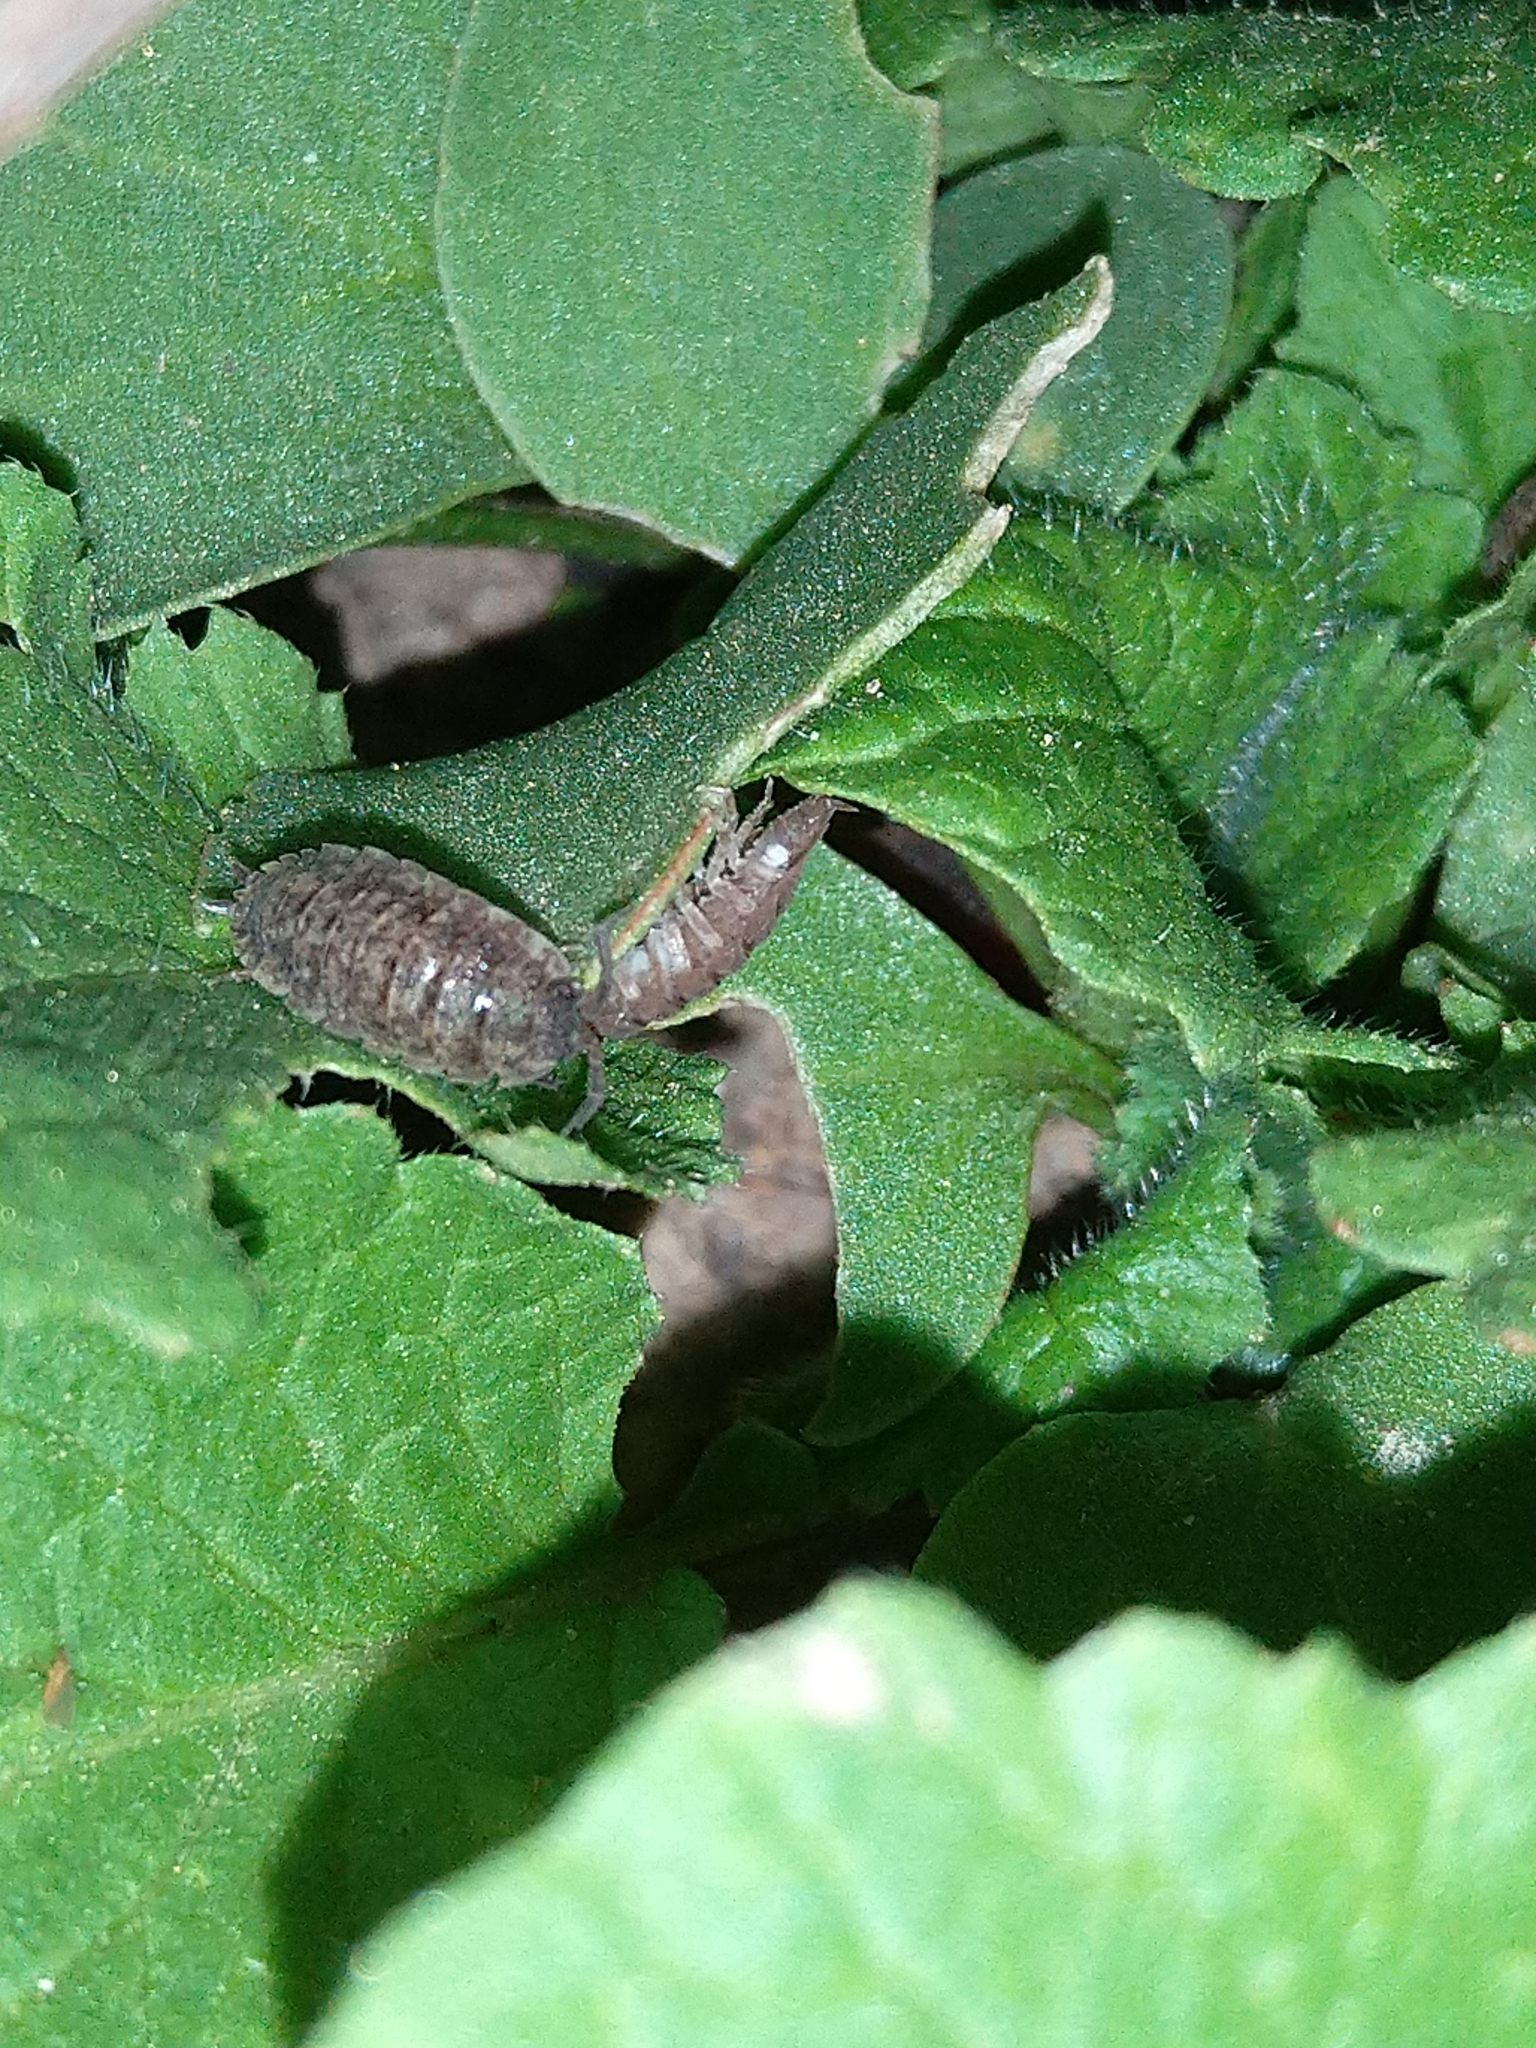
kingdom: Animalia
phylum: Arthropoda
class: Malacostraca
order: Isopoda
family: Porcellionidae
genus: Porcellio
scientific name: Porcellio scaber
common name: Common rough woodlouse
